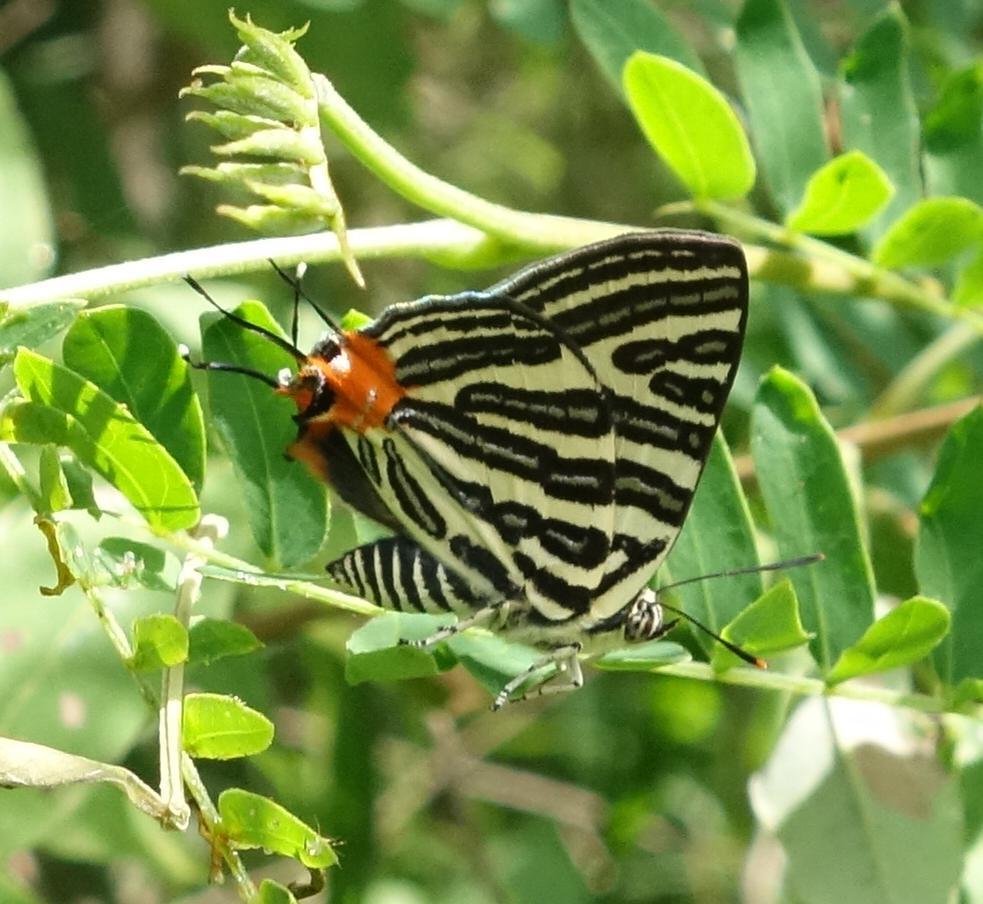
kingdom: Animalia
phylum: Arthropoda
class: Insecta
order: Lepidoptera
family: Lycaenidae
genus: Cigaritis
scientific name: Cigaritis lohita
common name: Long-banded silverline
